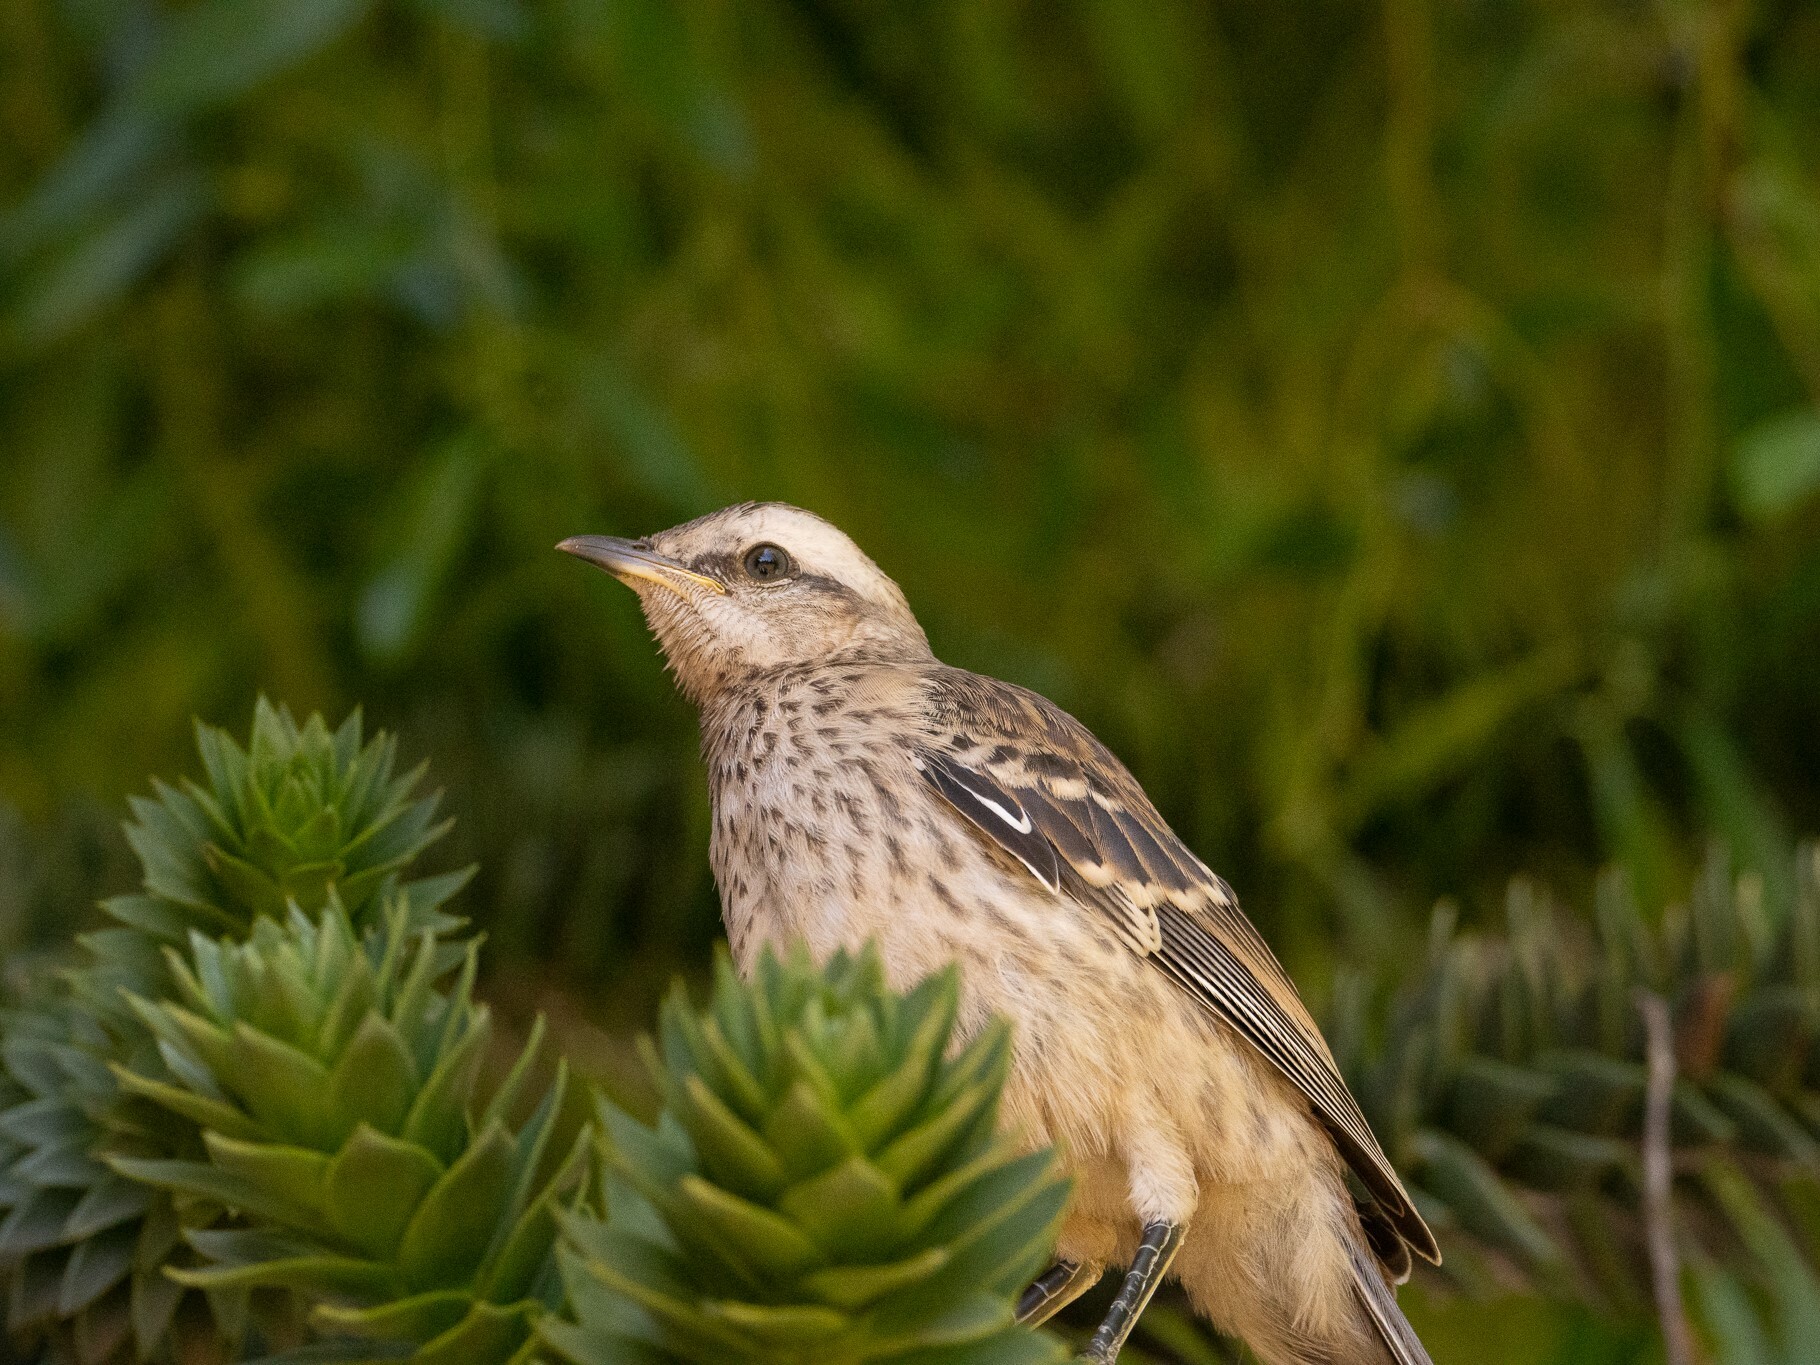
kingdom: Animalia
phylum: Chordata
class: Aves
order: Passeriformes
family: Mimidae
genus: Mimus
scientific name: Mimus thenca
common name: Chilean mockingbird
